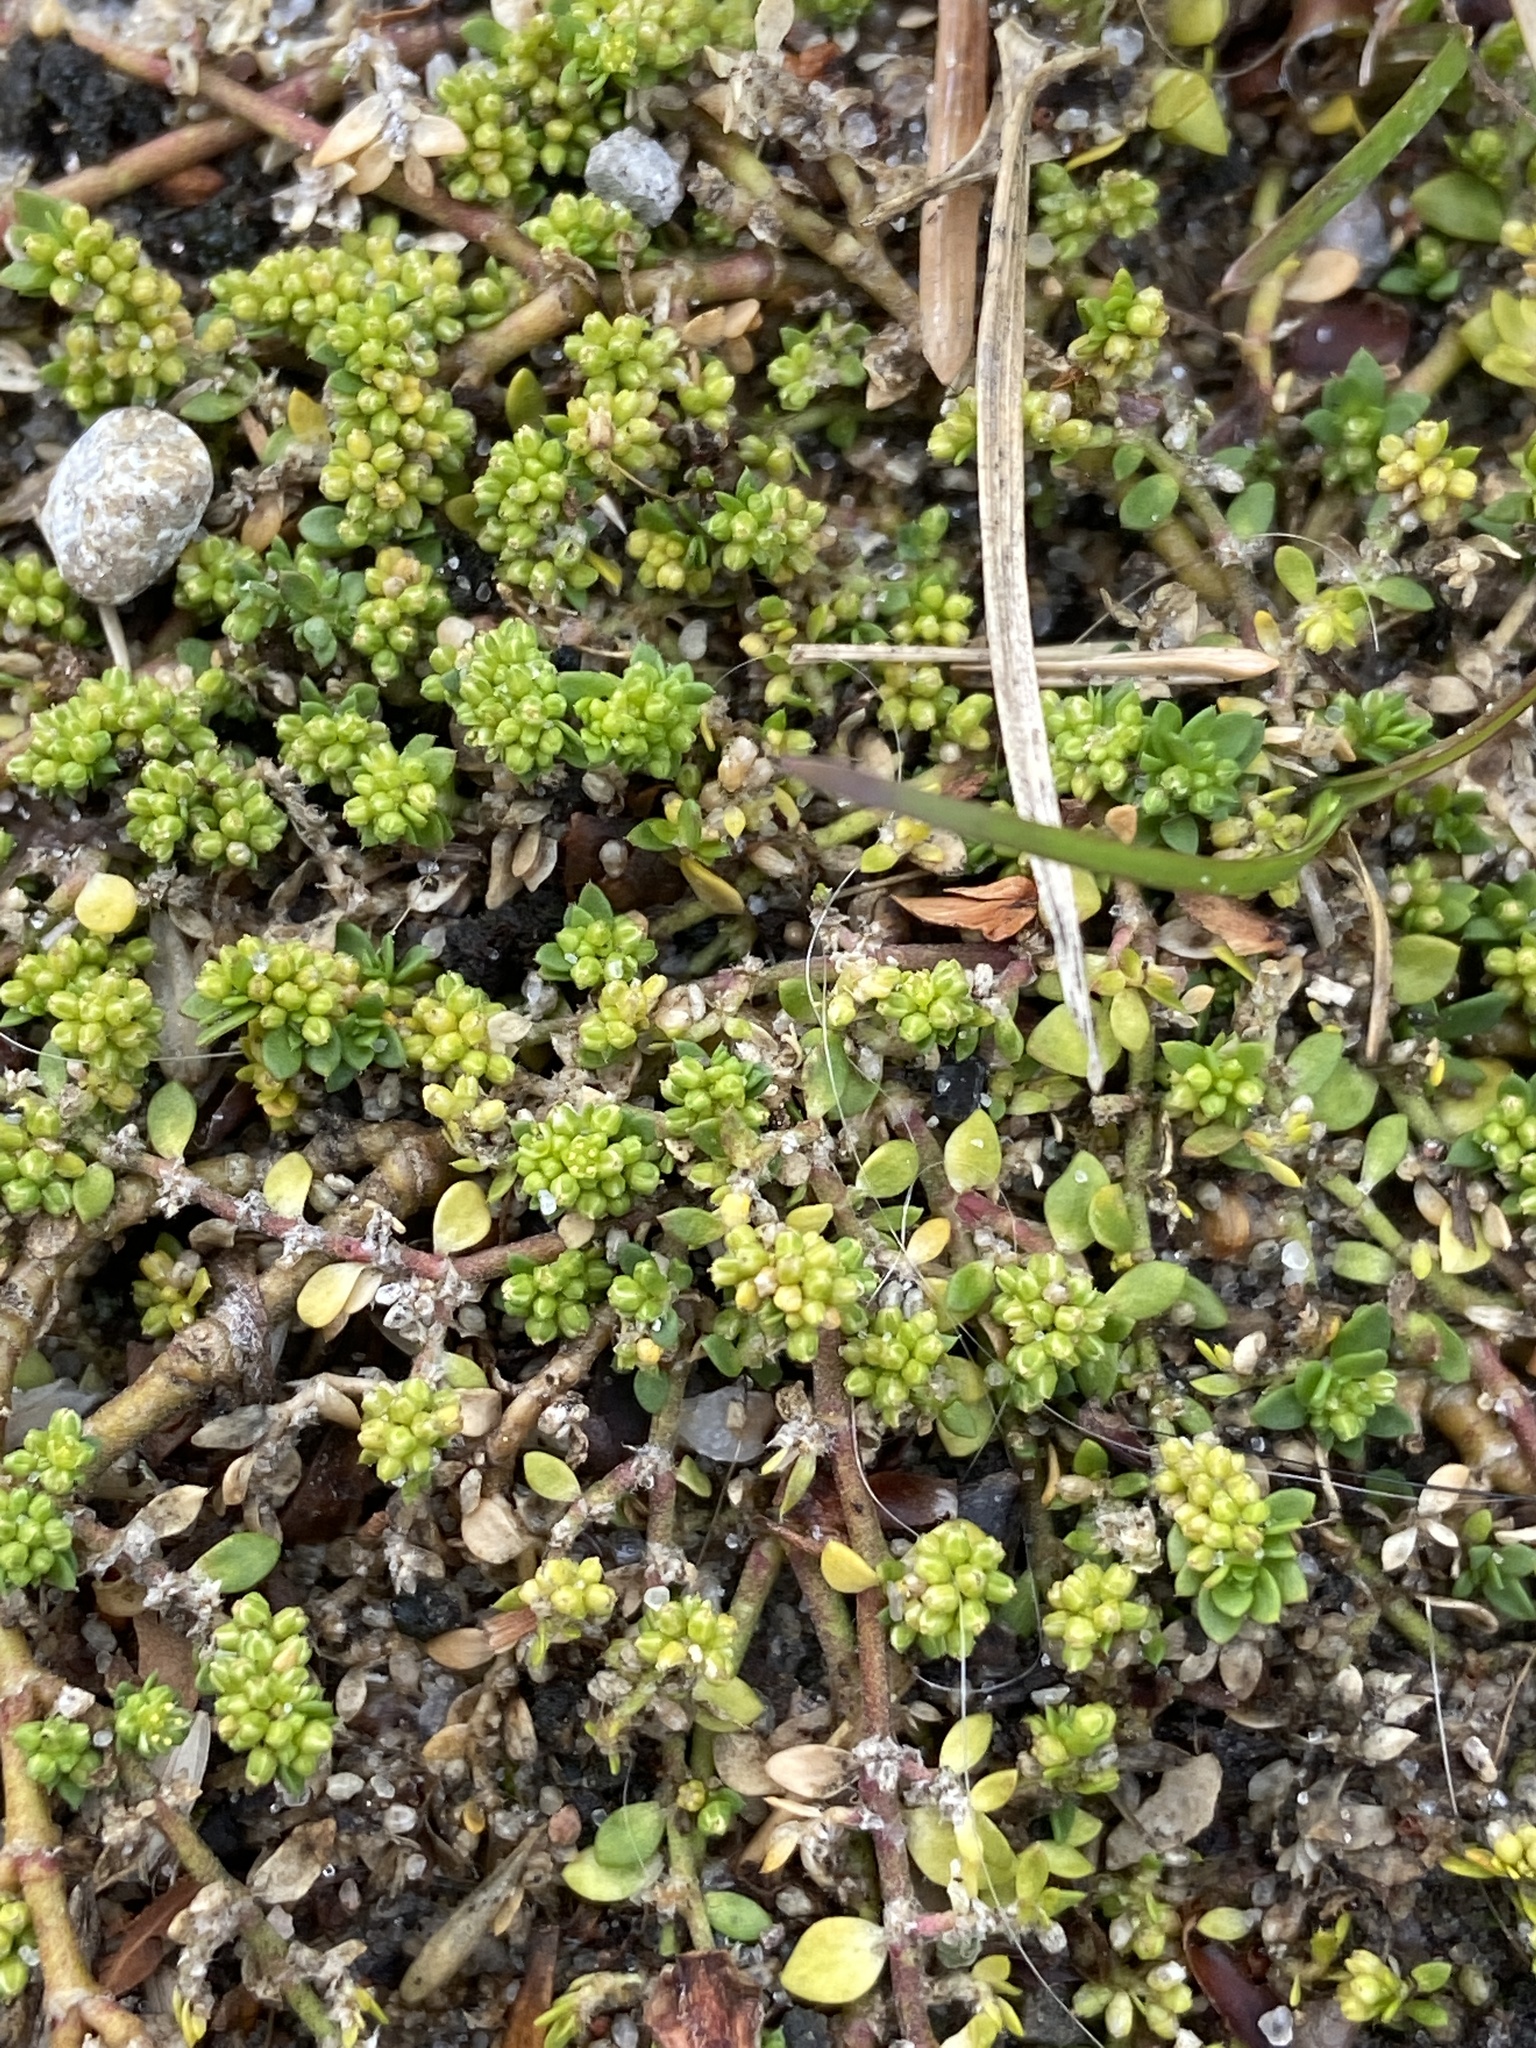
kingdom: Plantae
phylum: Tracheophyta
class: Magnoliopsida
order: Caryophyllales
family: Caryophyllaceae
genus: Herniaria
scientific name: Herniaria glabra
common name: Smooth rupturewort
